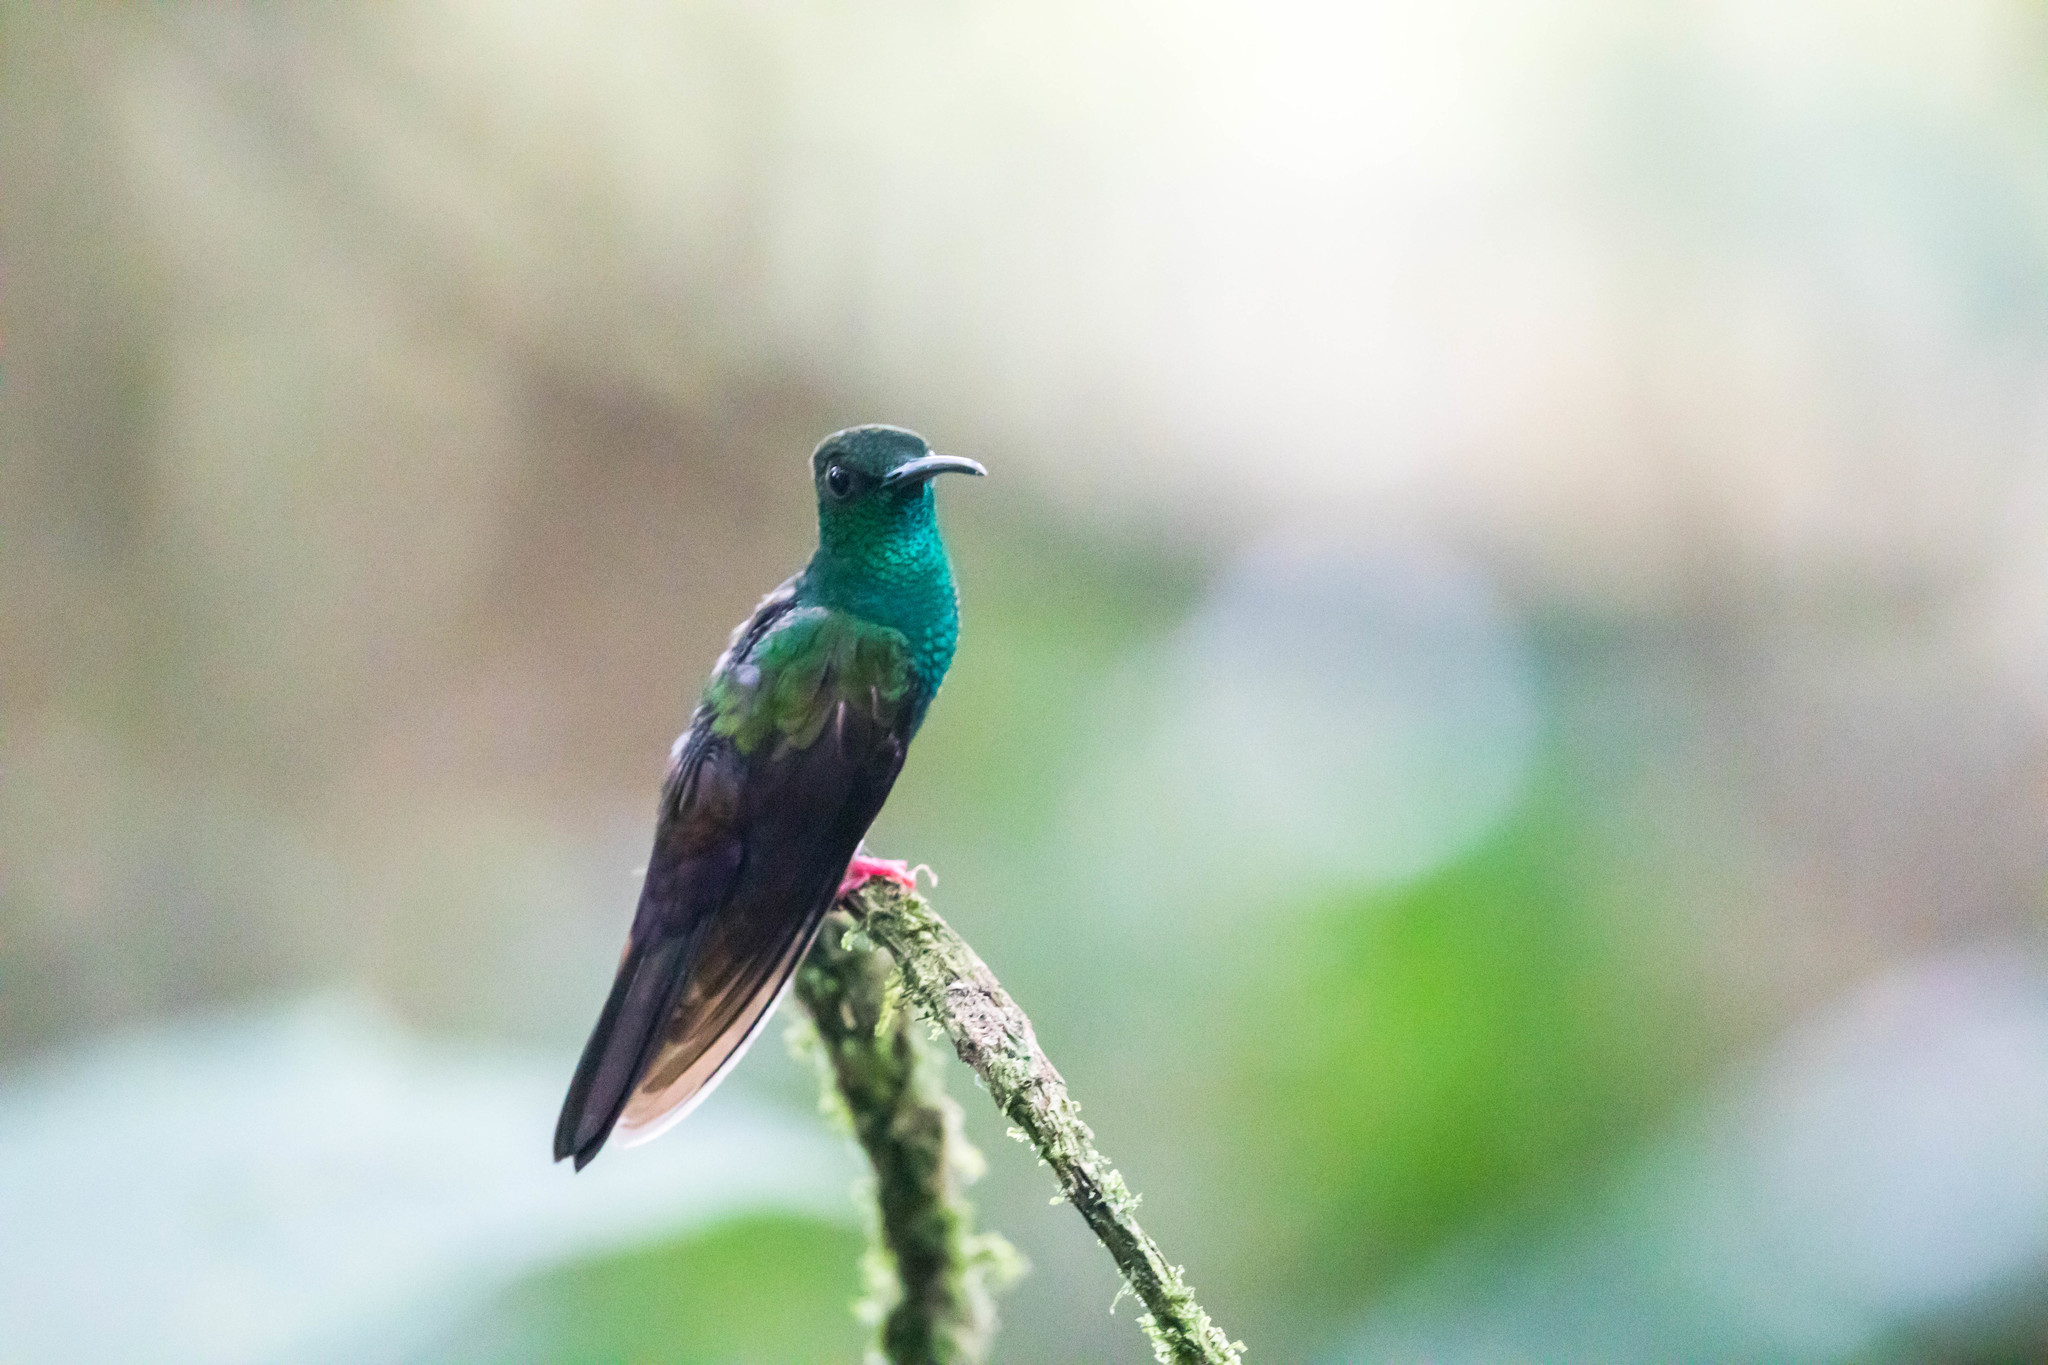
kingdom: Animalia
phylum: Chordata
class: Aves
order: Apodiformes
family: Trochilidae
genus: Chalybura
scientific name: Chalybura urochrysia
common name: Bronze-tailed plumeleteer
